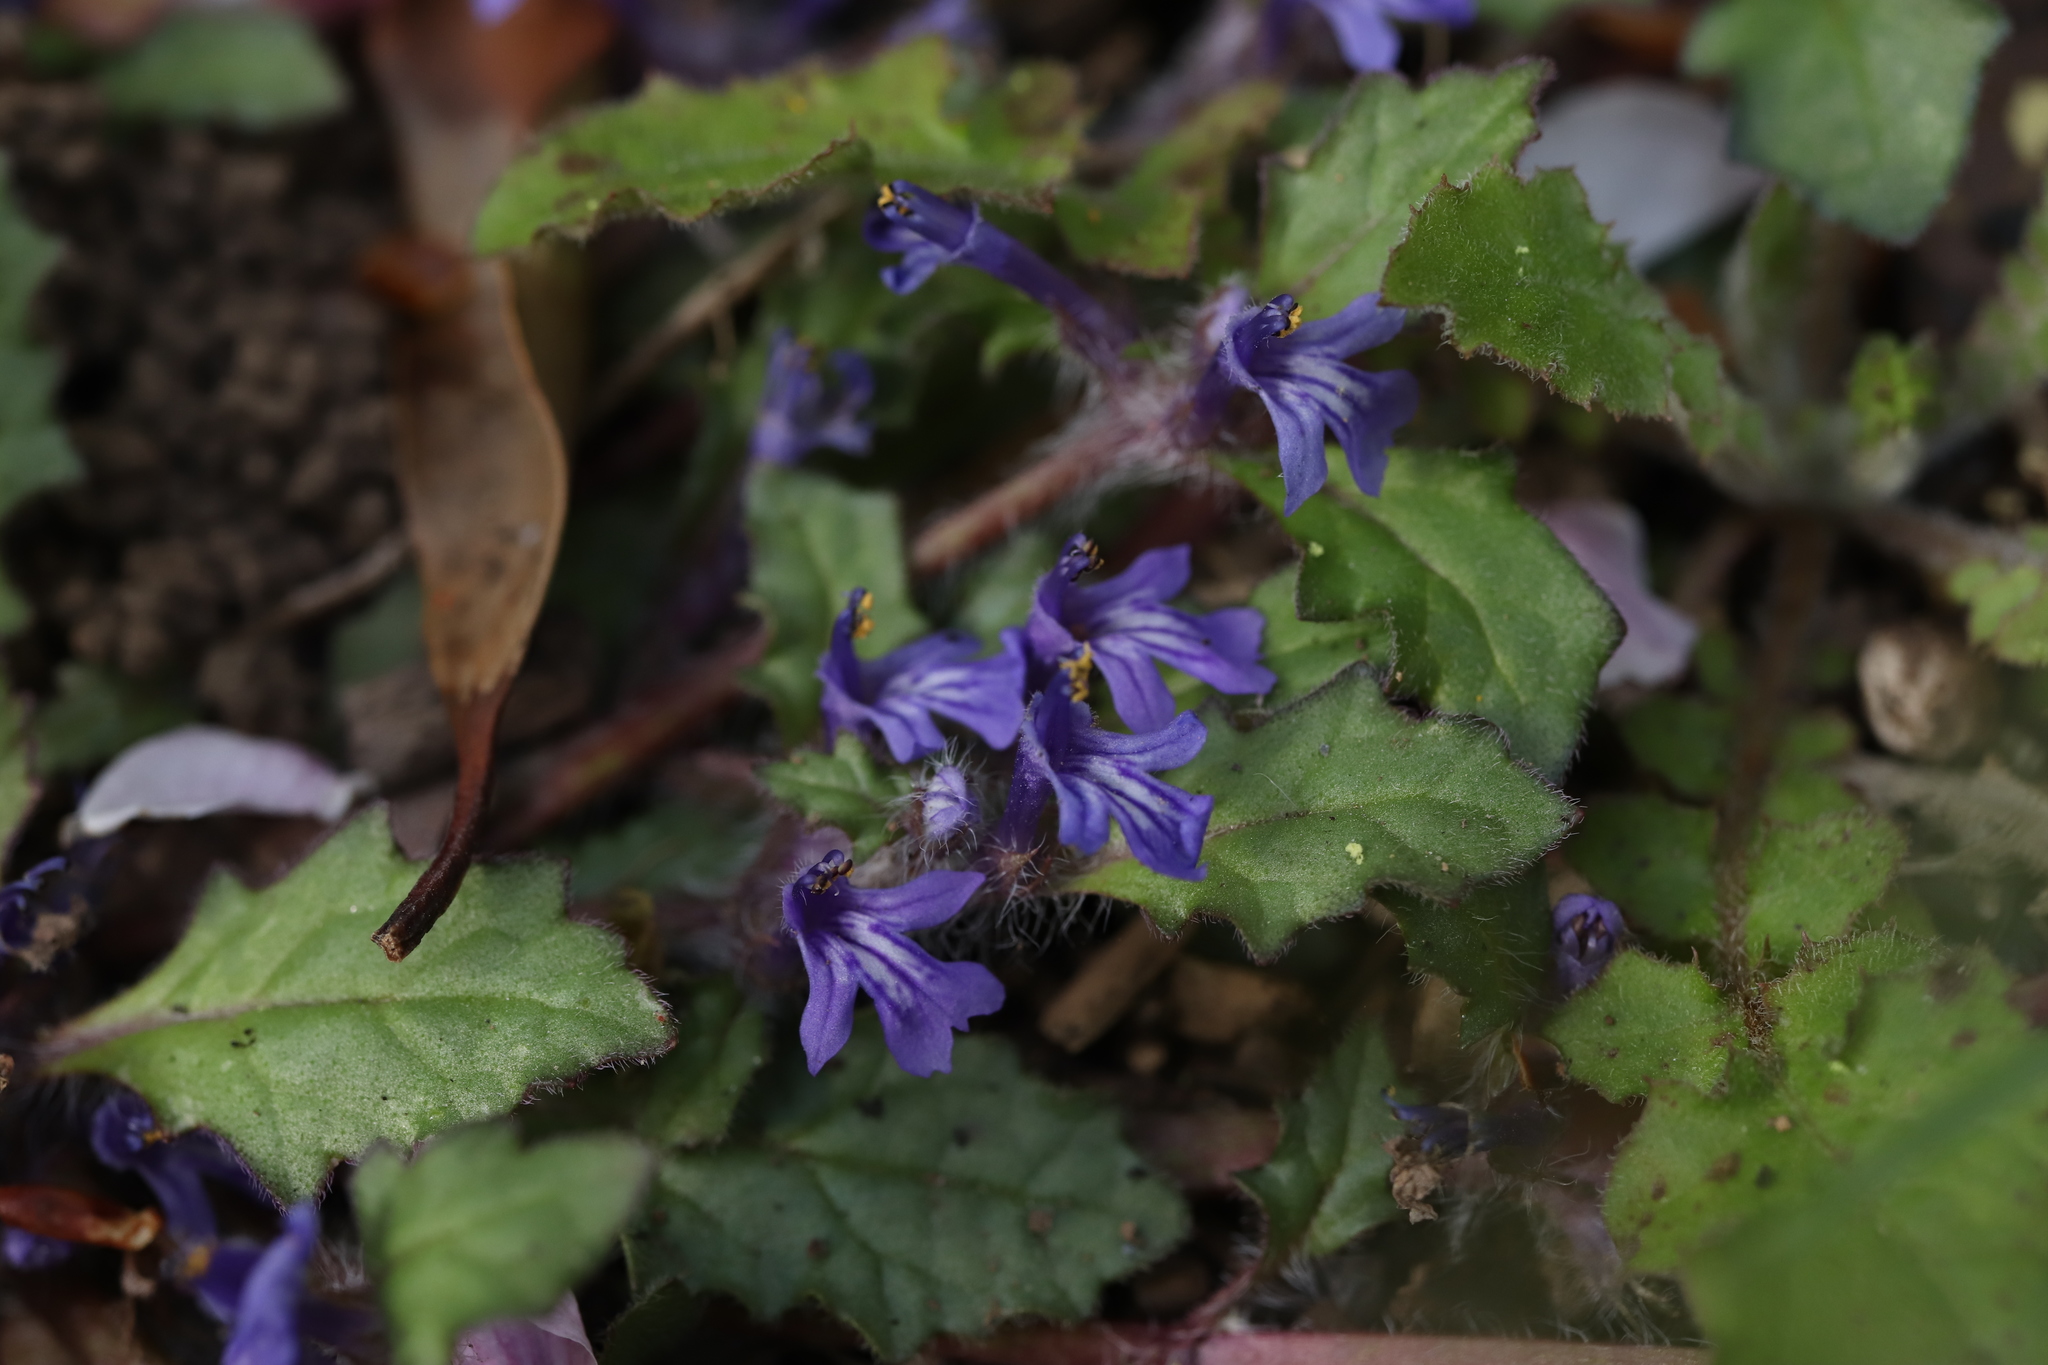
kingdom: Plantae
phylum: Tracheophyta
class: Magnoliopsida
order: Lamiales
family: Lamiaceae
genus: Ajuga
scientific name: Ajuga decumbens
